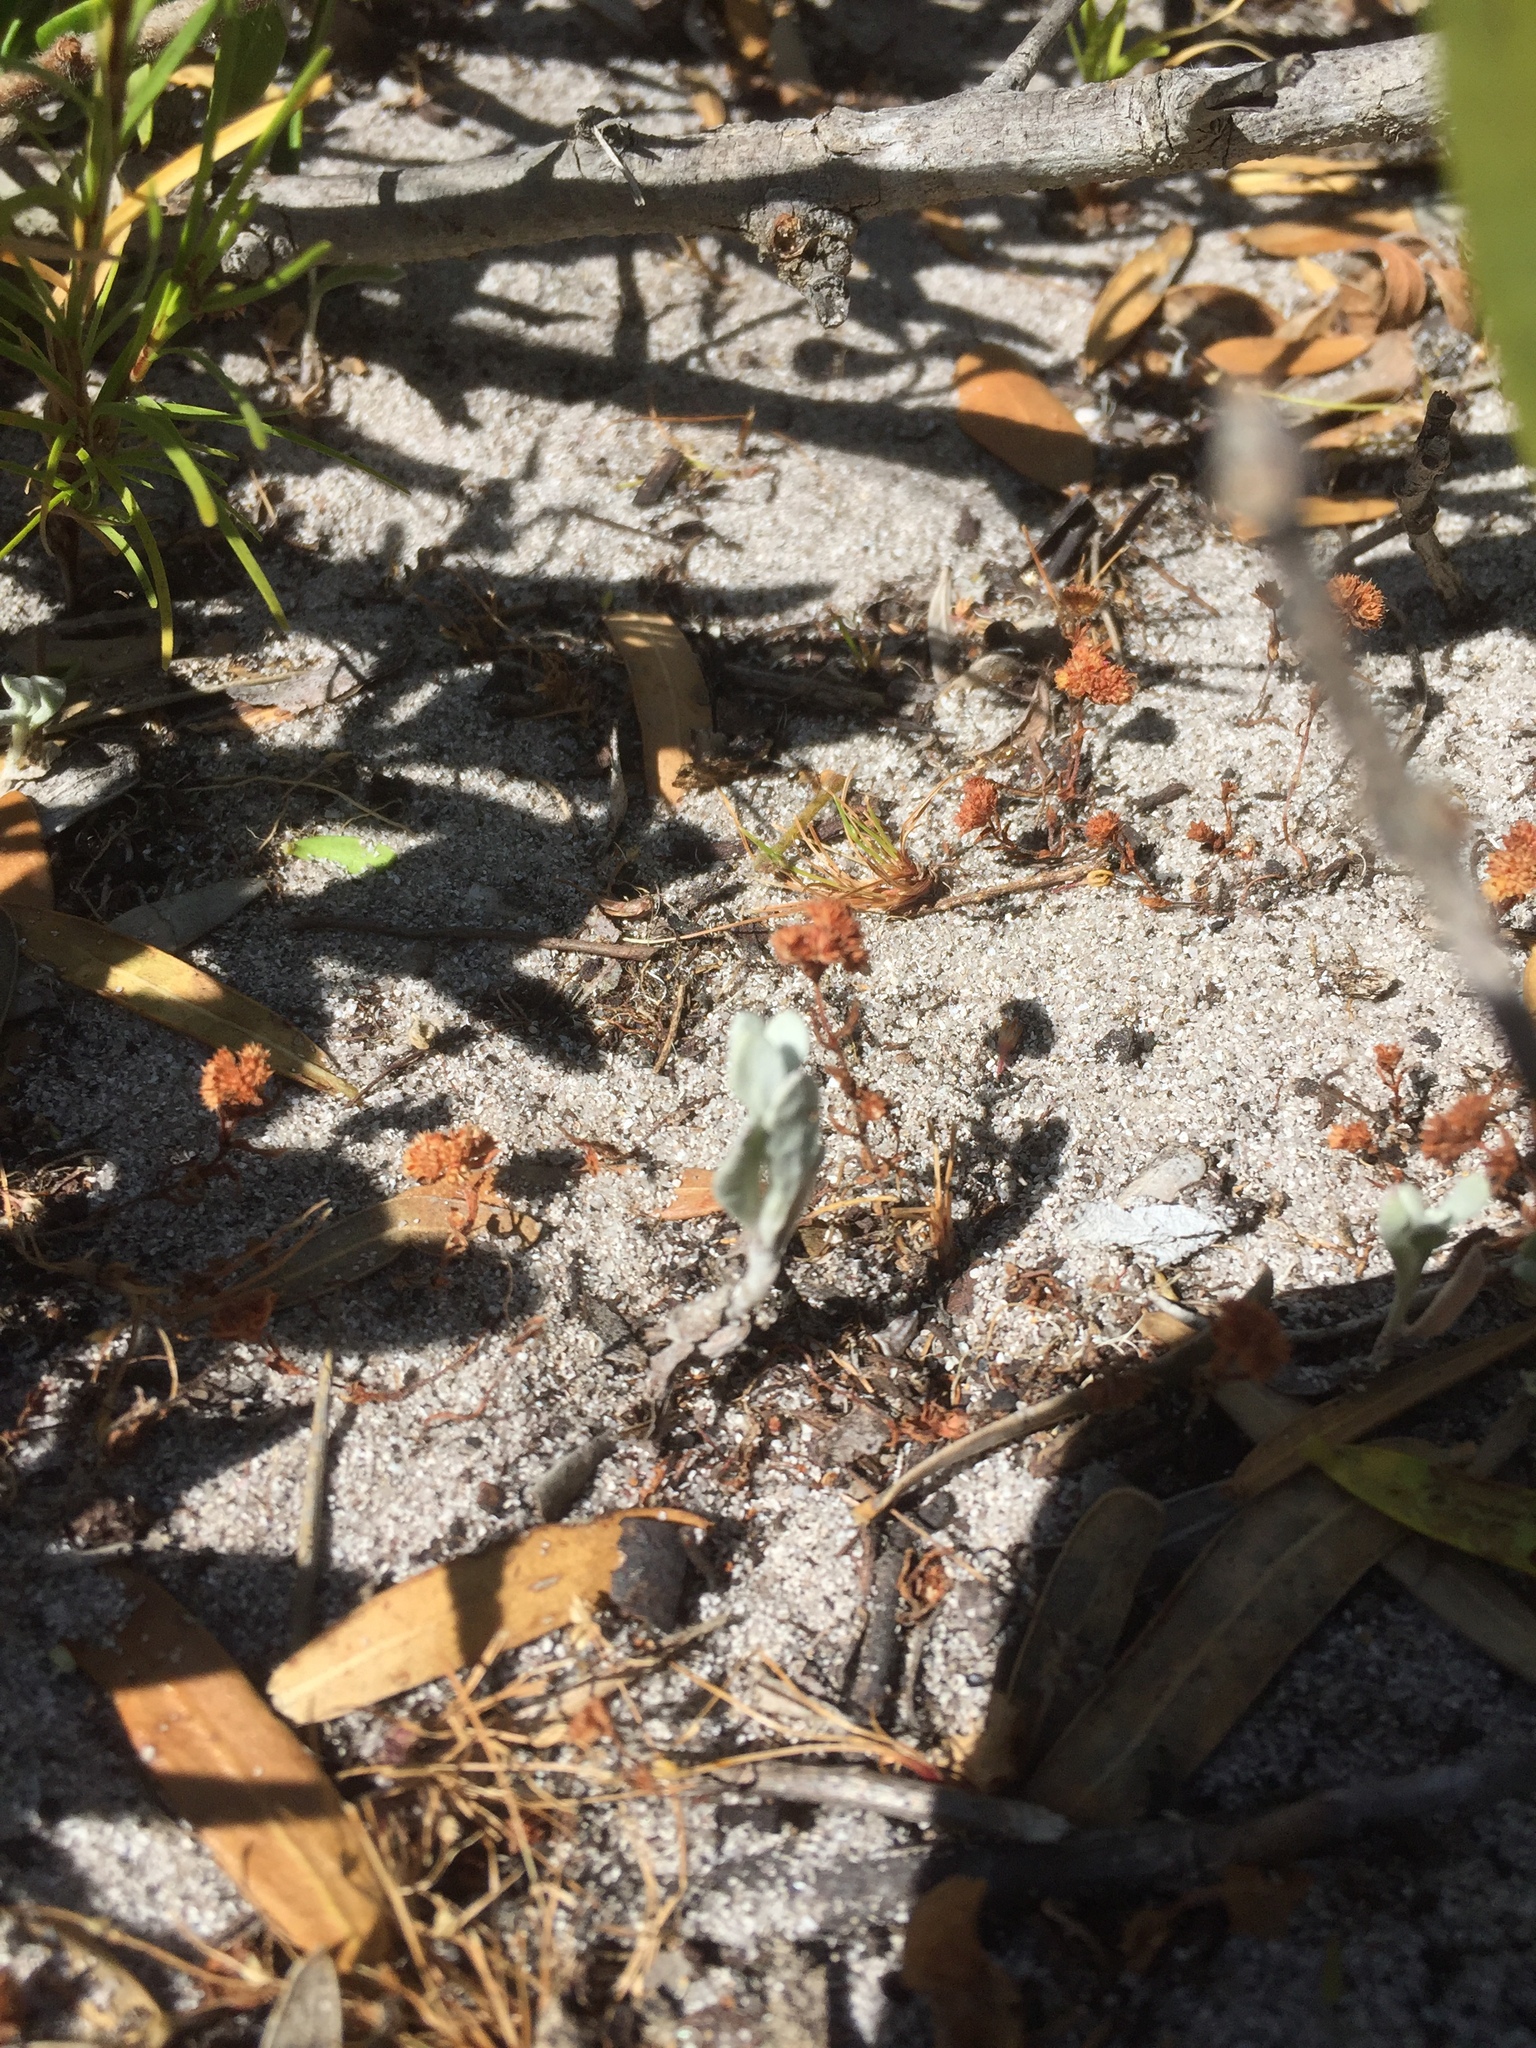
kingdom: Plantae
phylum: Tracheophyta
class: Magnoliopsida
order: Saxifragales
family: Crassulaceae
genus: Crassula
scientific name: Crassula glomerata
